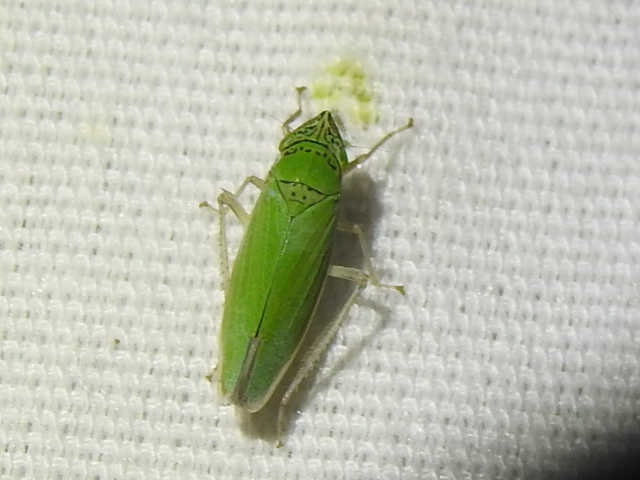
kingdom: Animalia
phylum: Arthropoda
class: Insecta
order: Hemiptera
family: Cicadellidae
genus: Draeculacephala
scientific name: Draeculacephala inscripta
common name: Leafhopper
